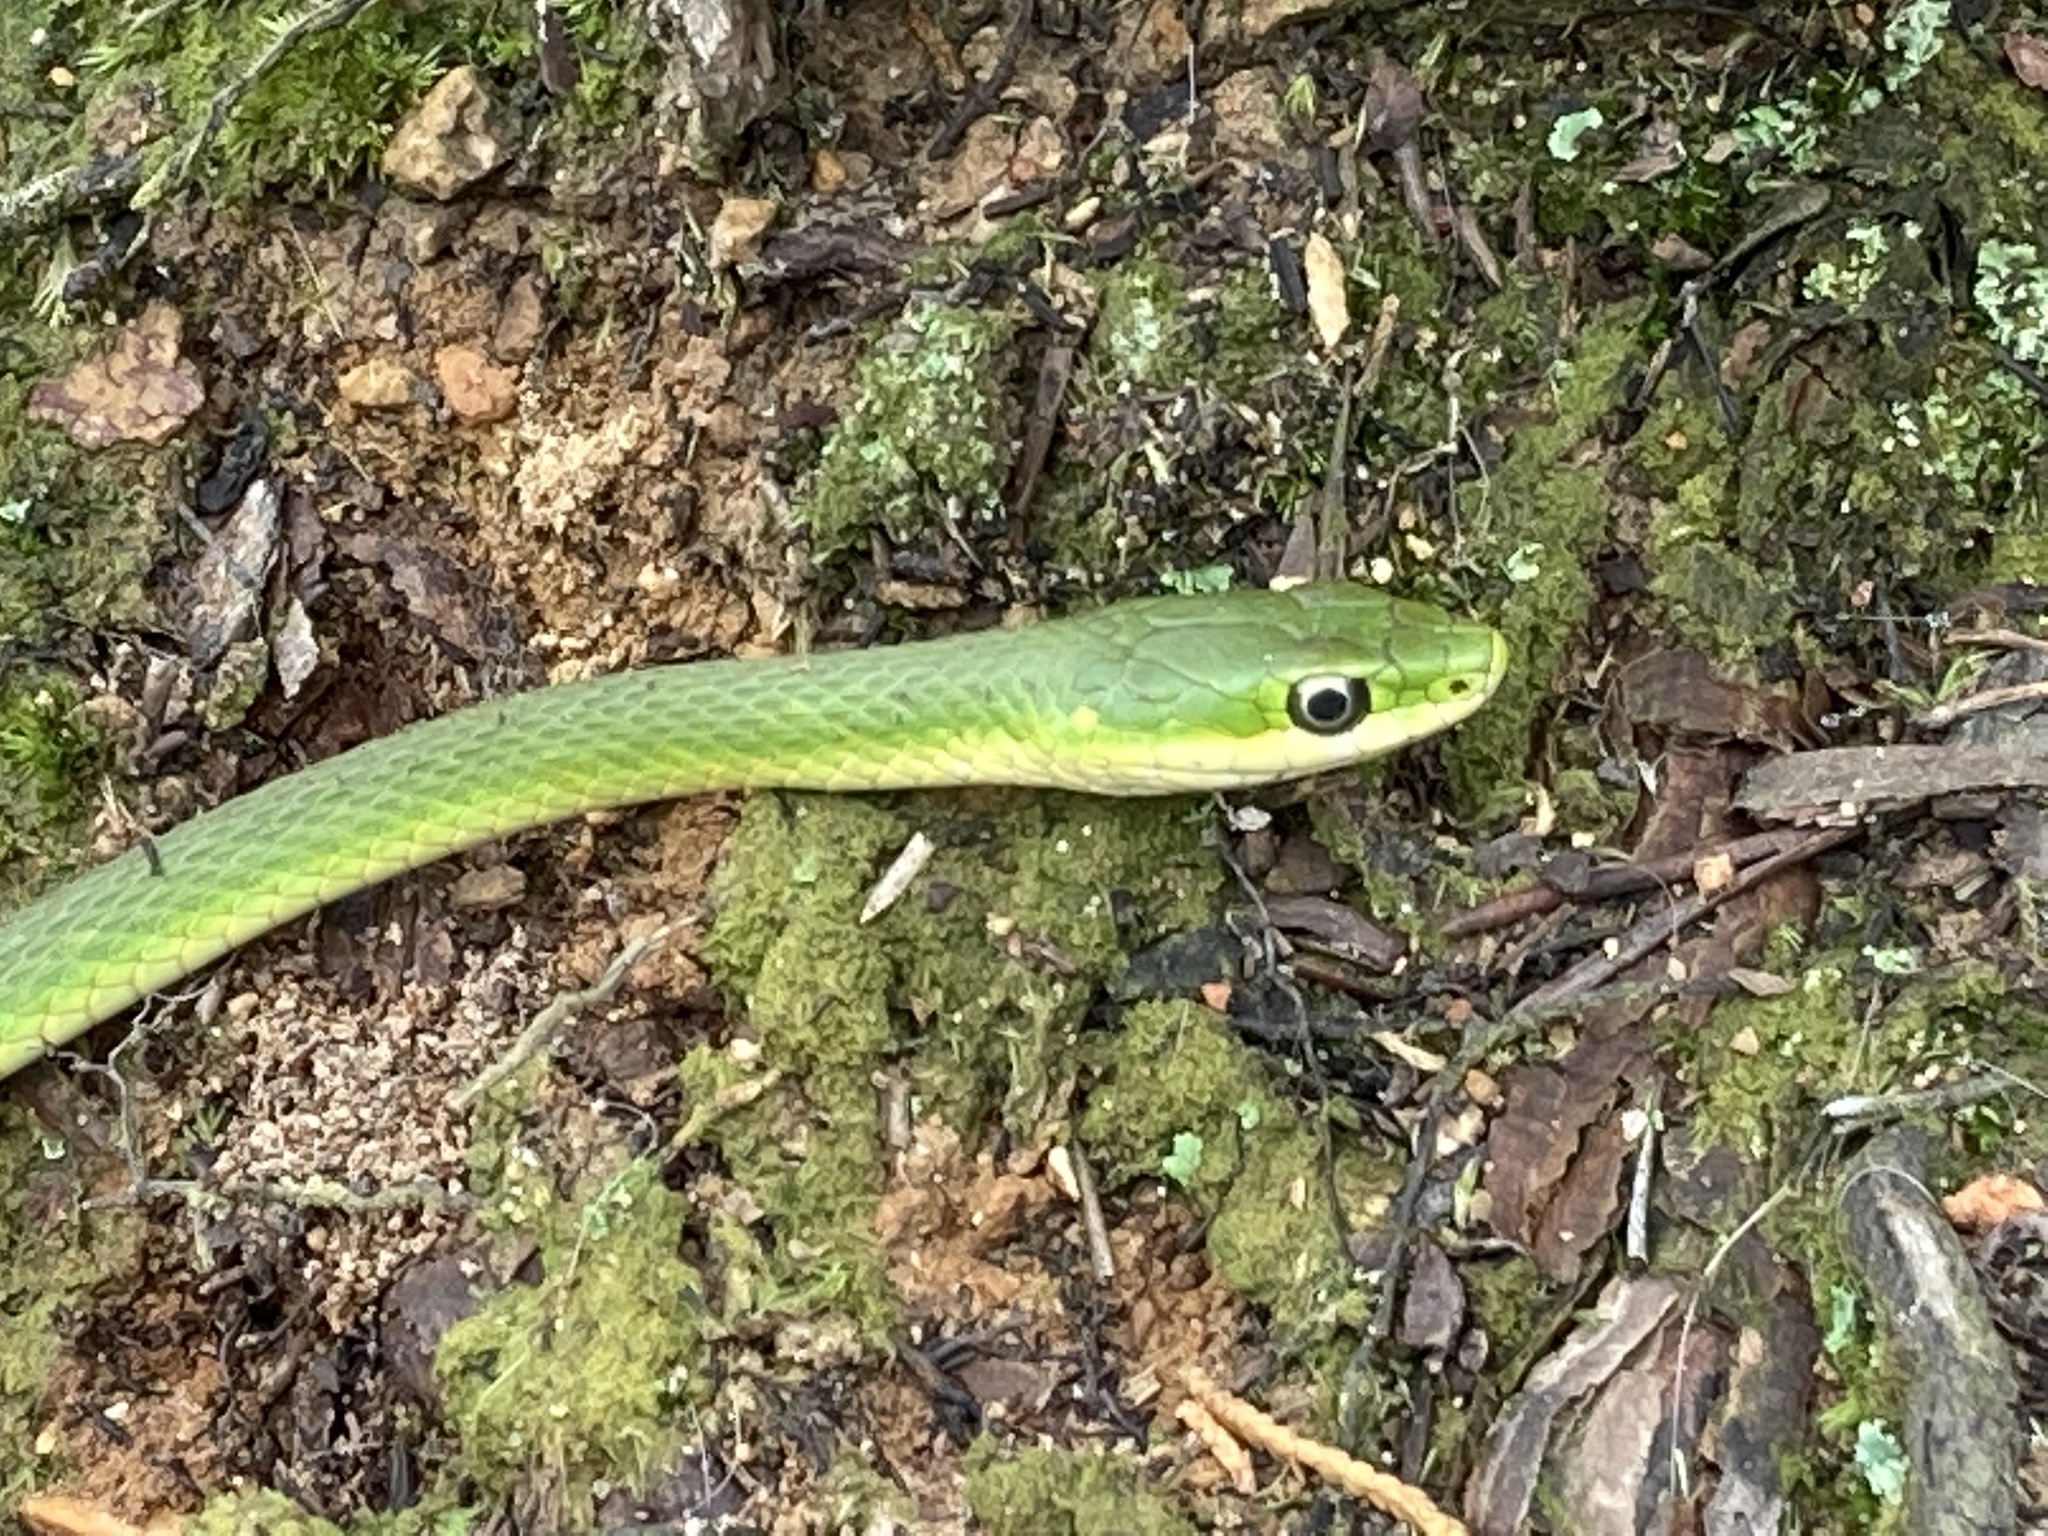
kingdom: Animalia
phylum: Chordata
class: Squamata
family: Colubridae
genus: Opheodrys
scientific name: Opheodrys aestivus
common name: Rough greensnake
